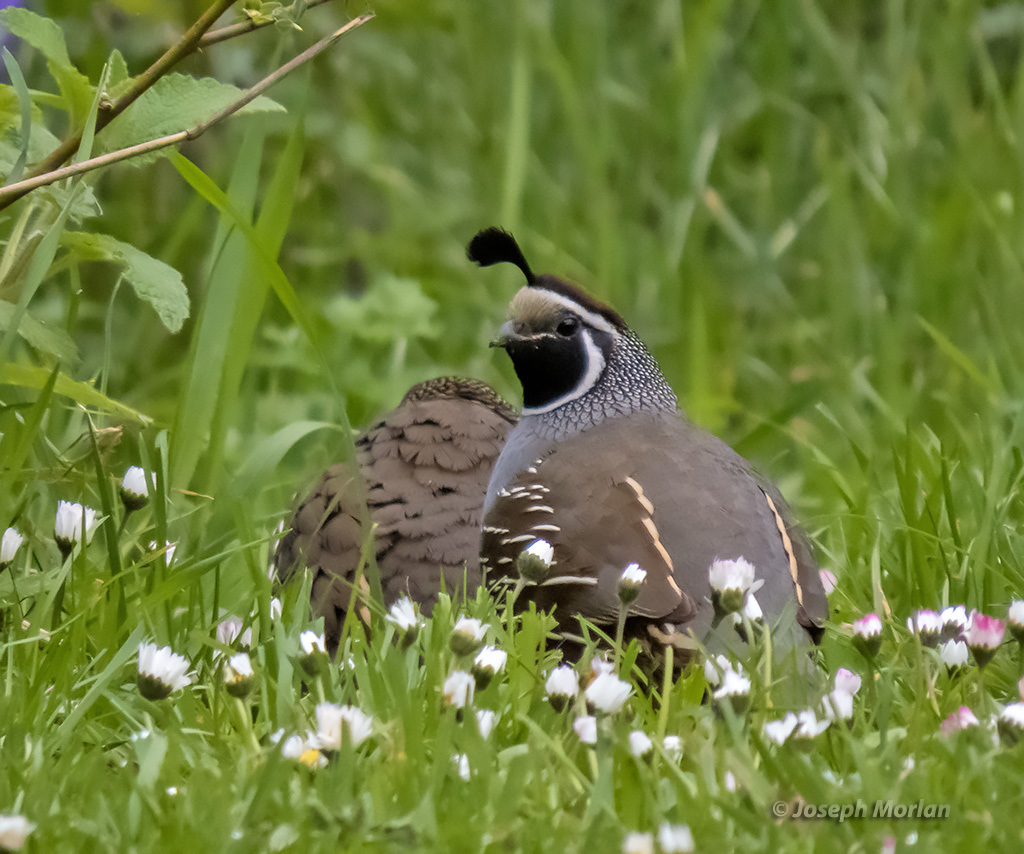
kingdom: Animalia
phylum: Chordata
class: Aves
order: Galliformes
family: Odontophoridae
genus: Callipepla
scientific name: Callipepla californica
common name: California quail
